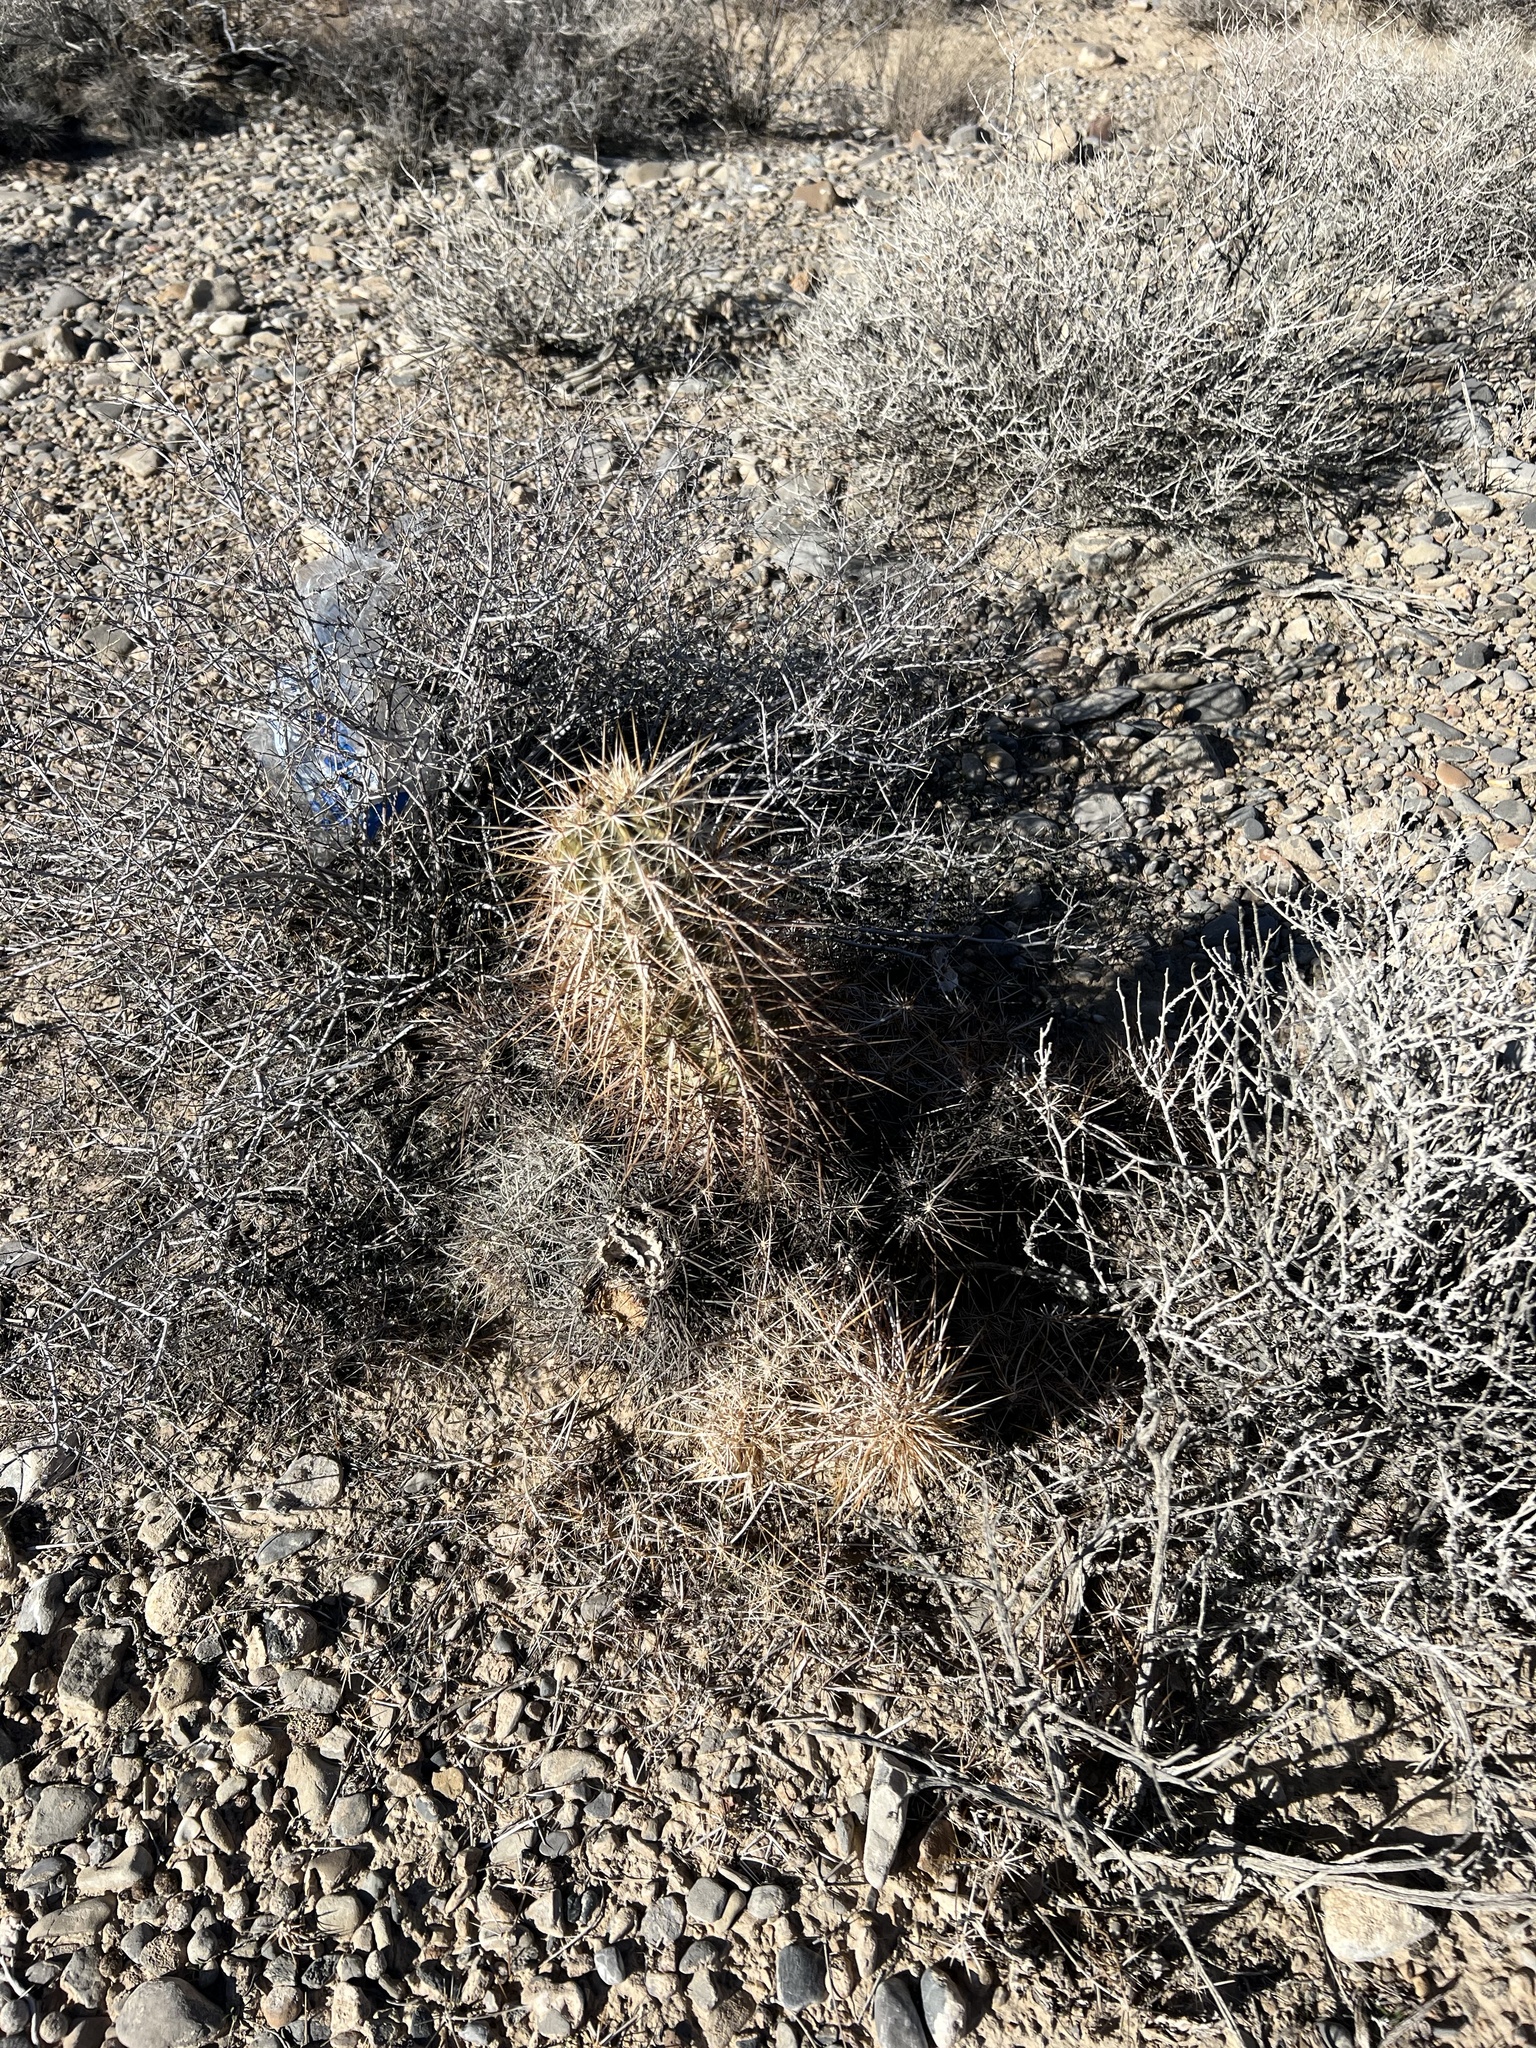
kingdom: Plantae
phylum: Tracheophyta
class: Magnoliopsida
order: Caryophyllales
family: Cactaceae
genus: Echinocereus
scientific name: Echinocereus engelmannii
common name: Engelmann's hedgehog cactus
